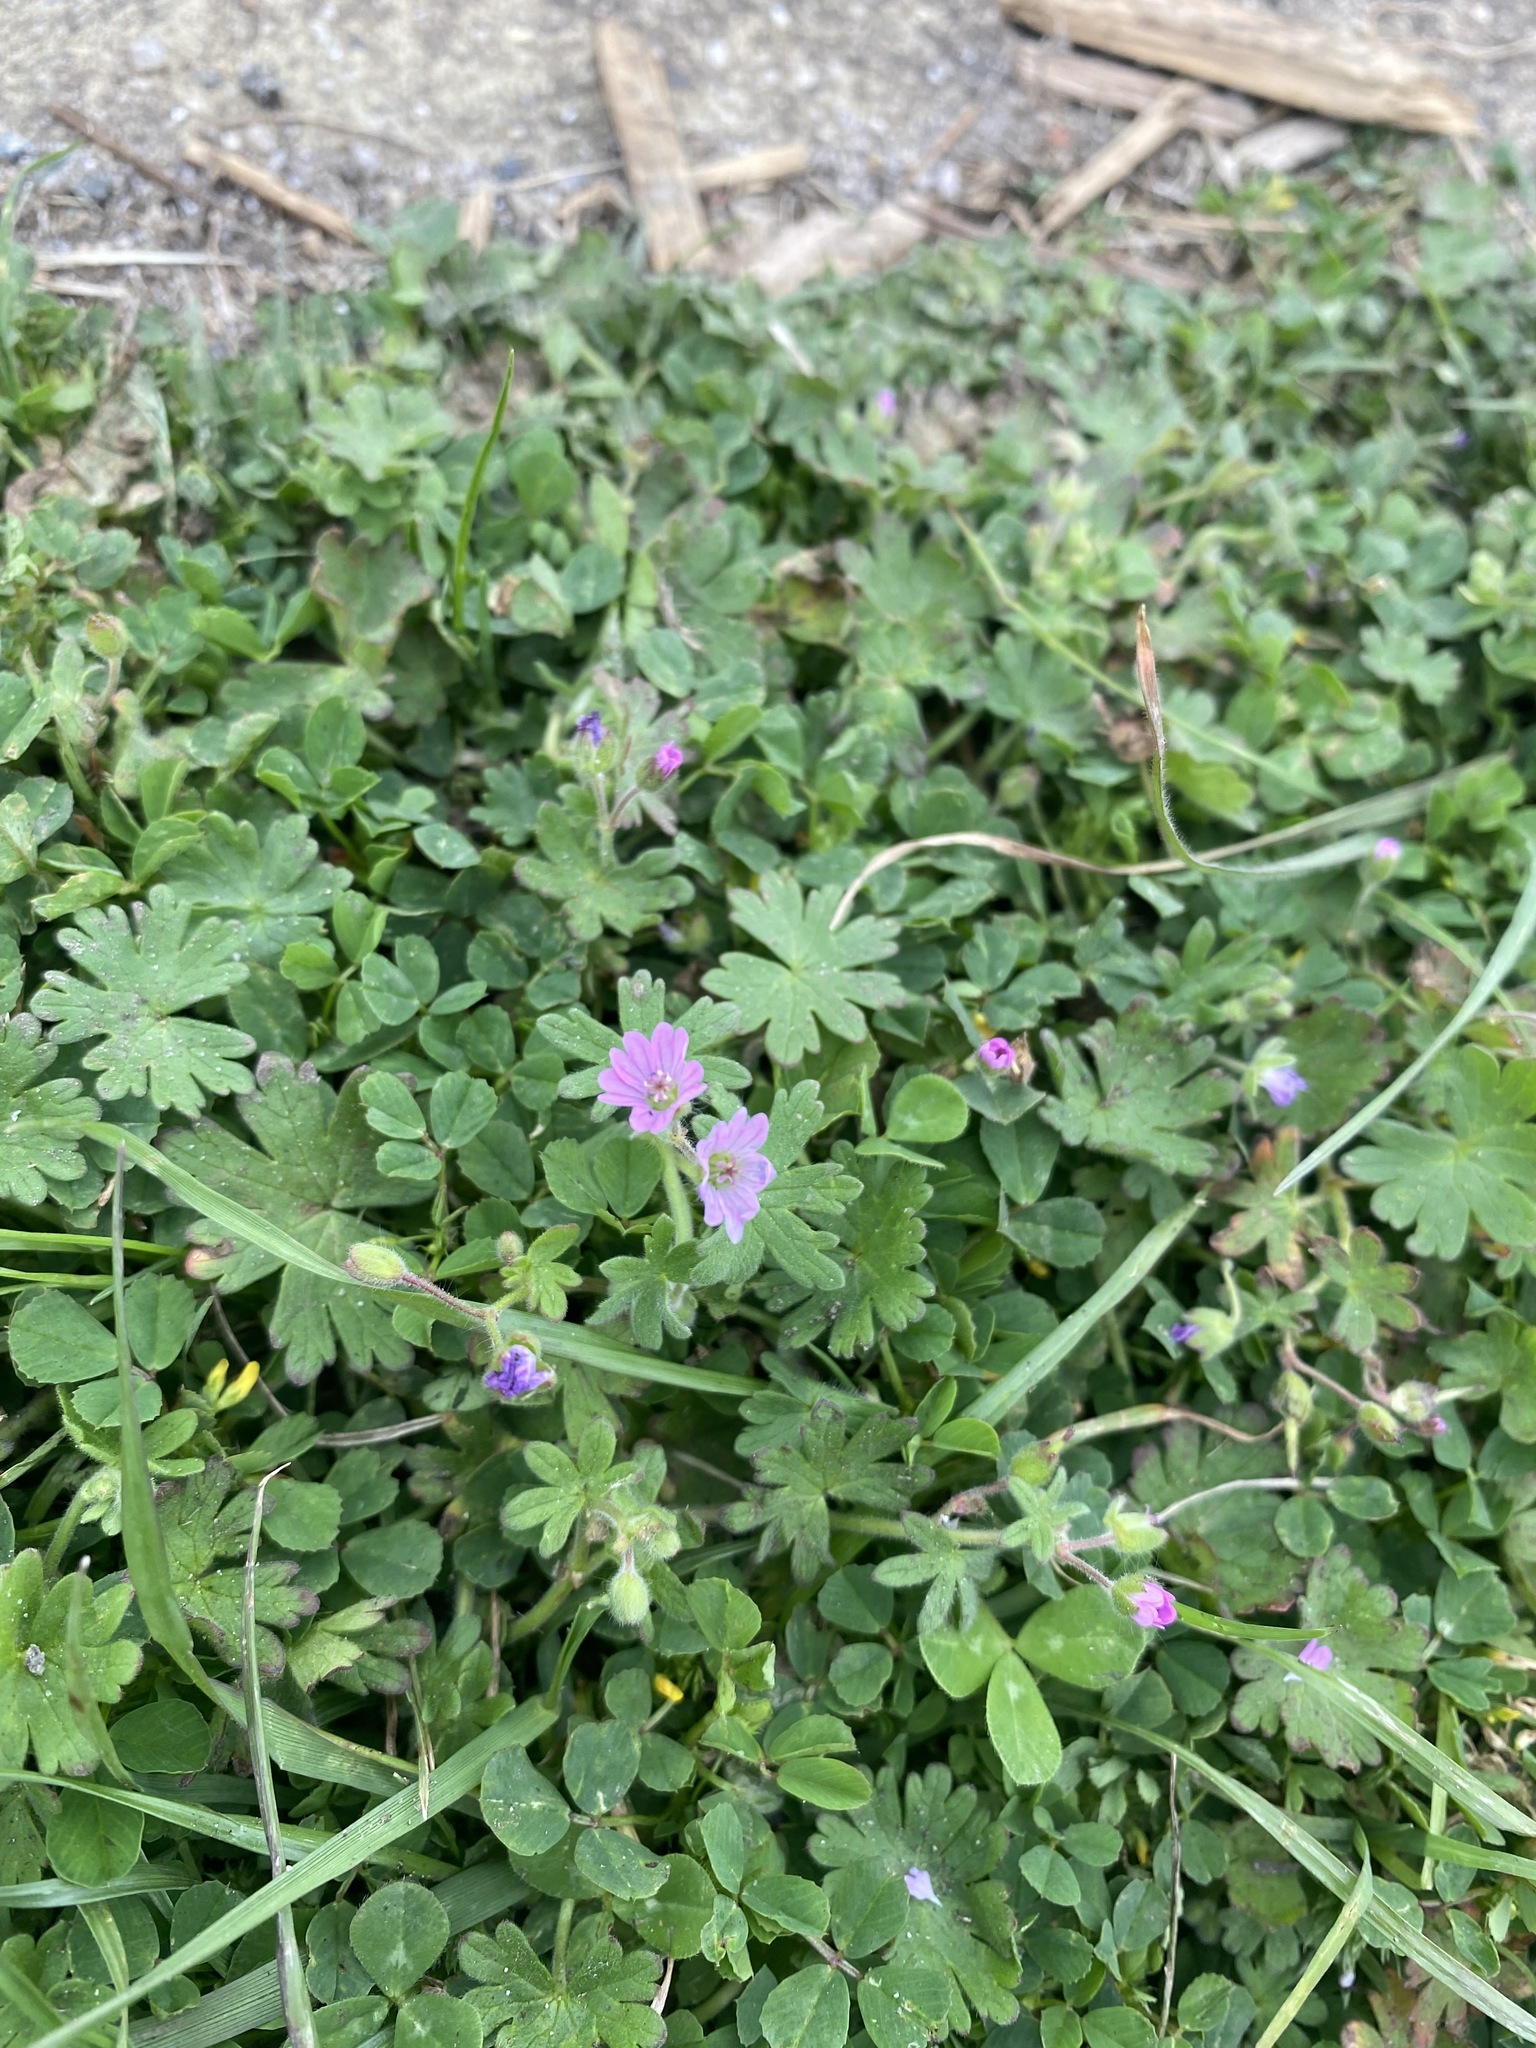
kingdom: Plantae
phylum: Tracheophyta
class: Magnoliopsida
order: Geraniales
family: Geraniaceae
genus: Geranium
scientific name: Geranium molle
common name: Dove's-foot crane's-bill
